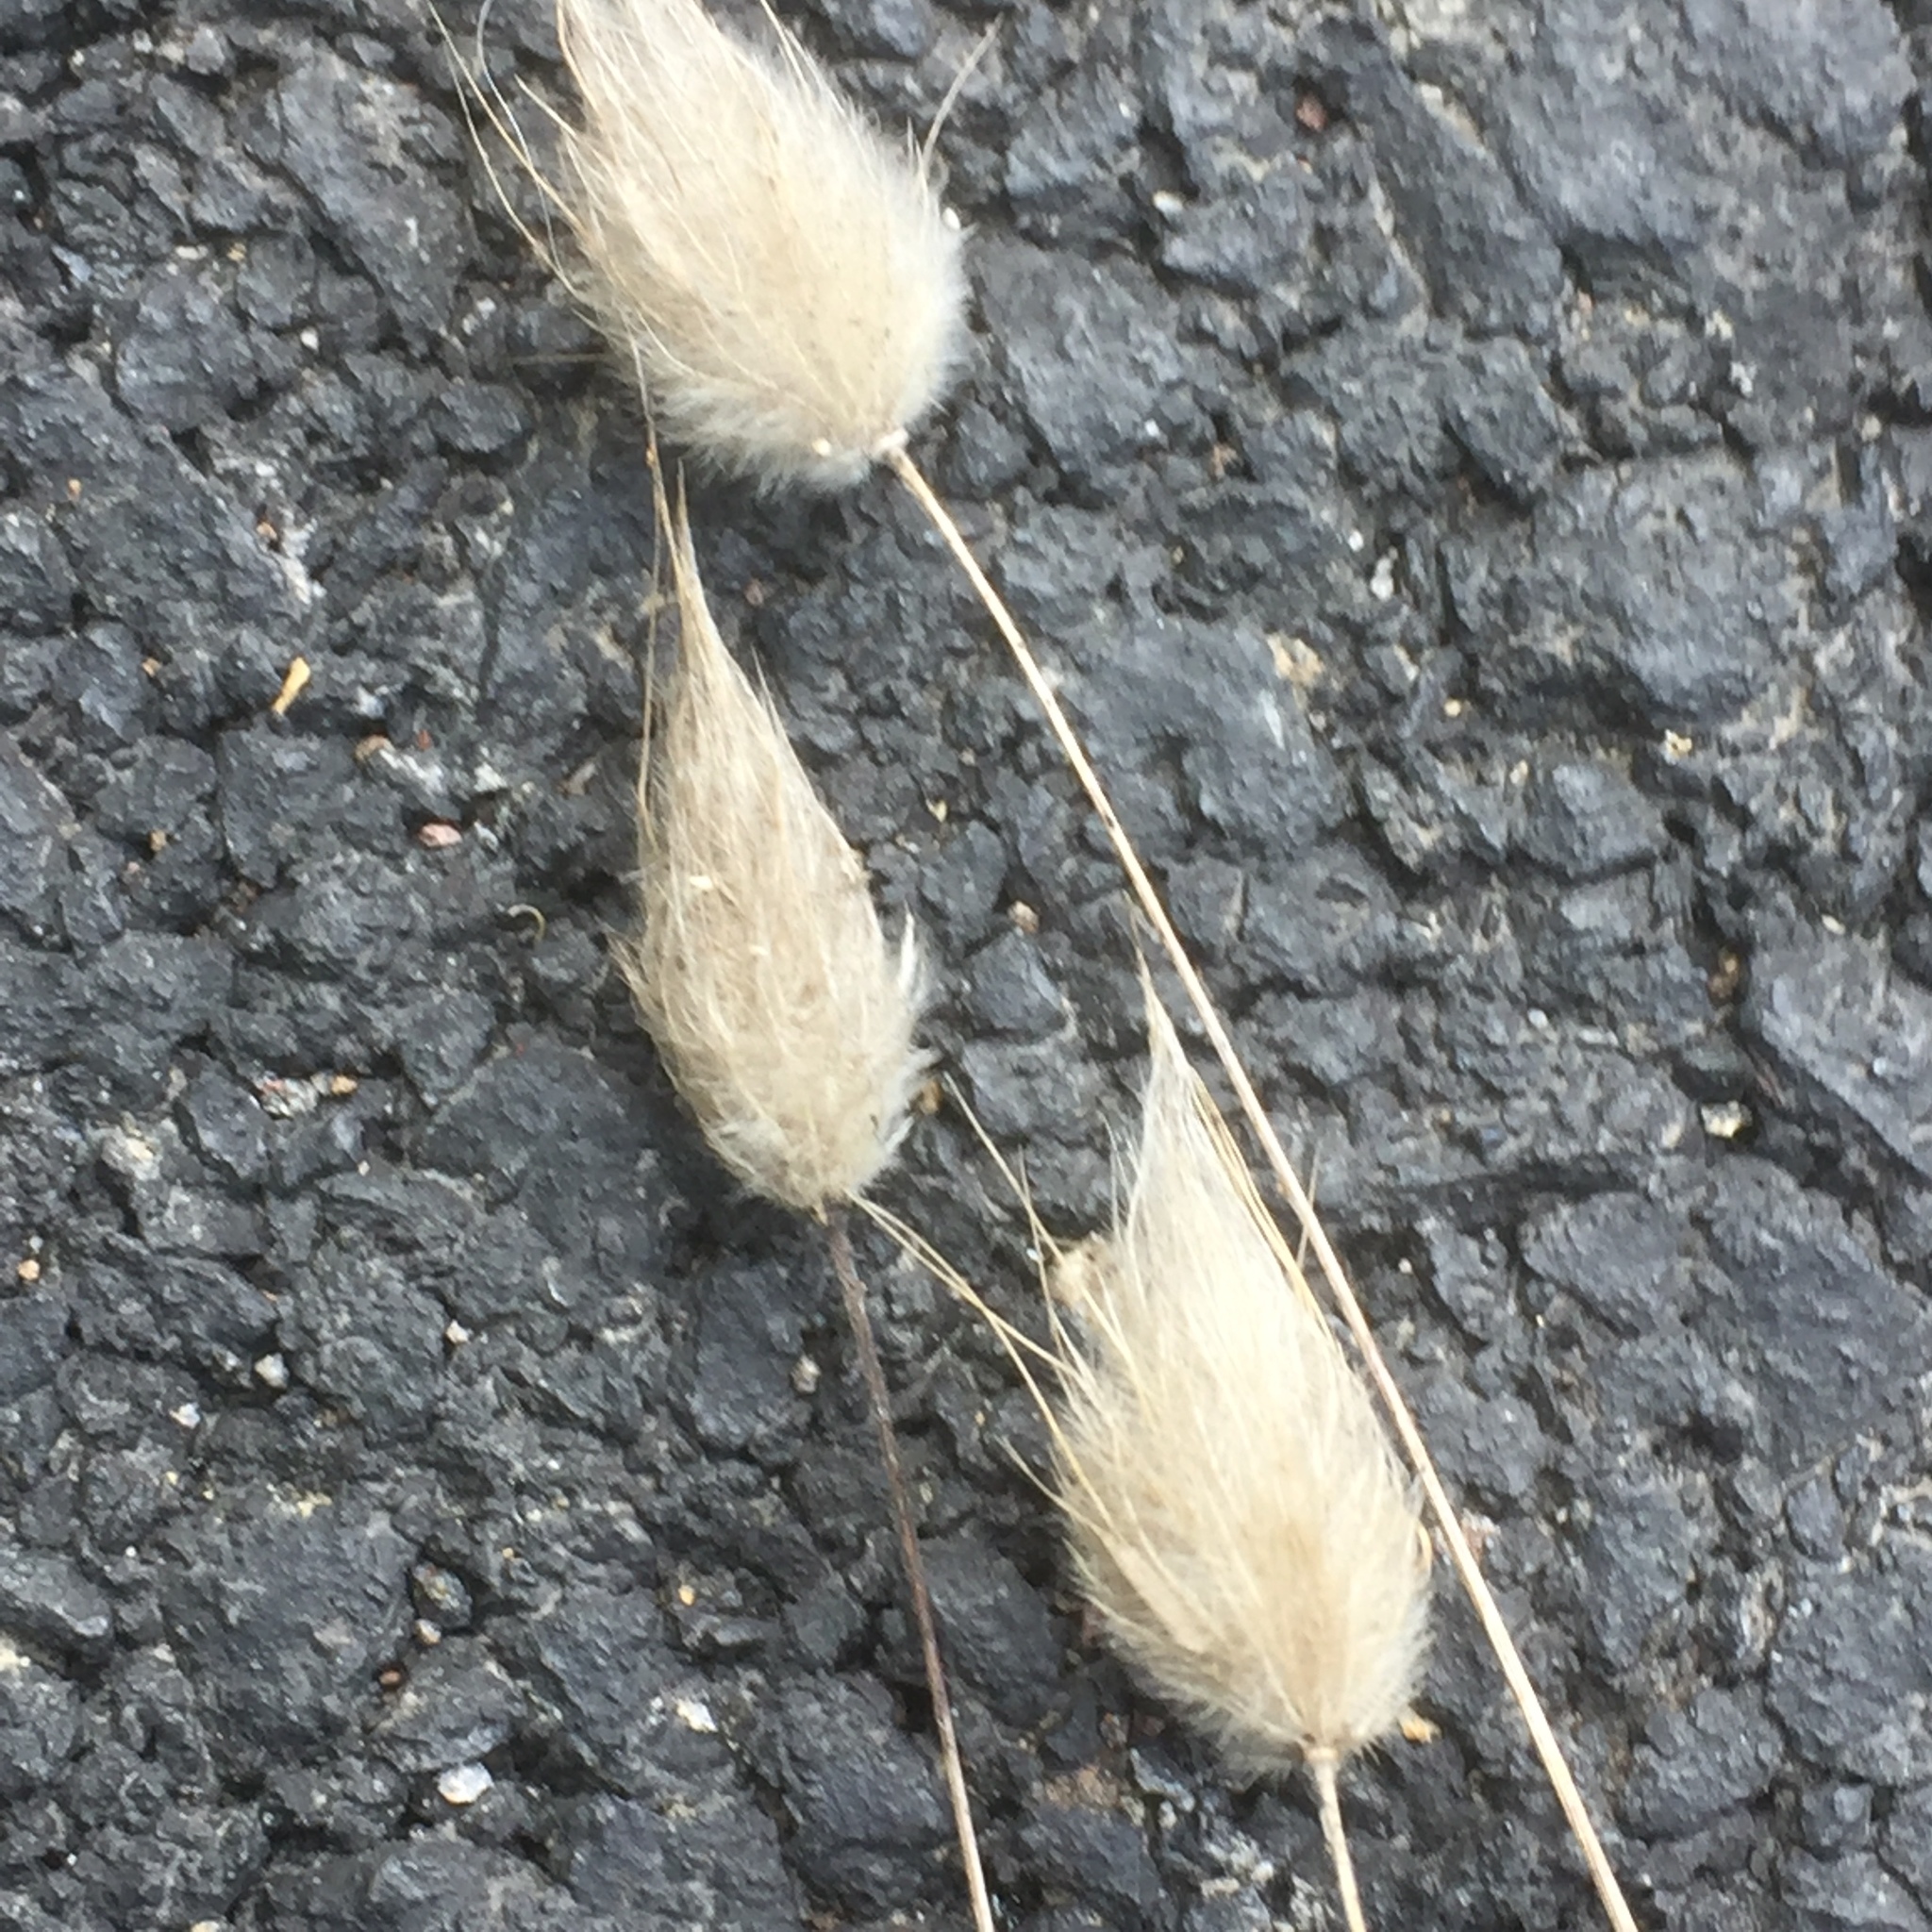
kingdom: Plantae
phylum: Tracheophyta
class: Liliopsida
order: Poales
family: Poaceae
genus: Lagurus
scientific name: Lagurus ovatus
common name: Hare's-tail
